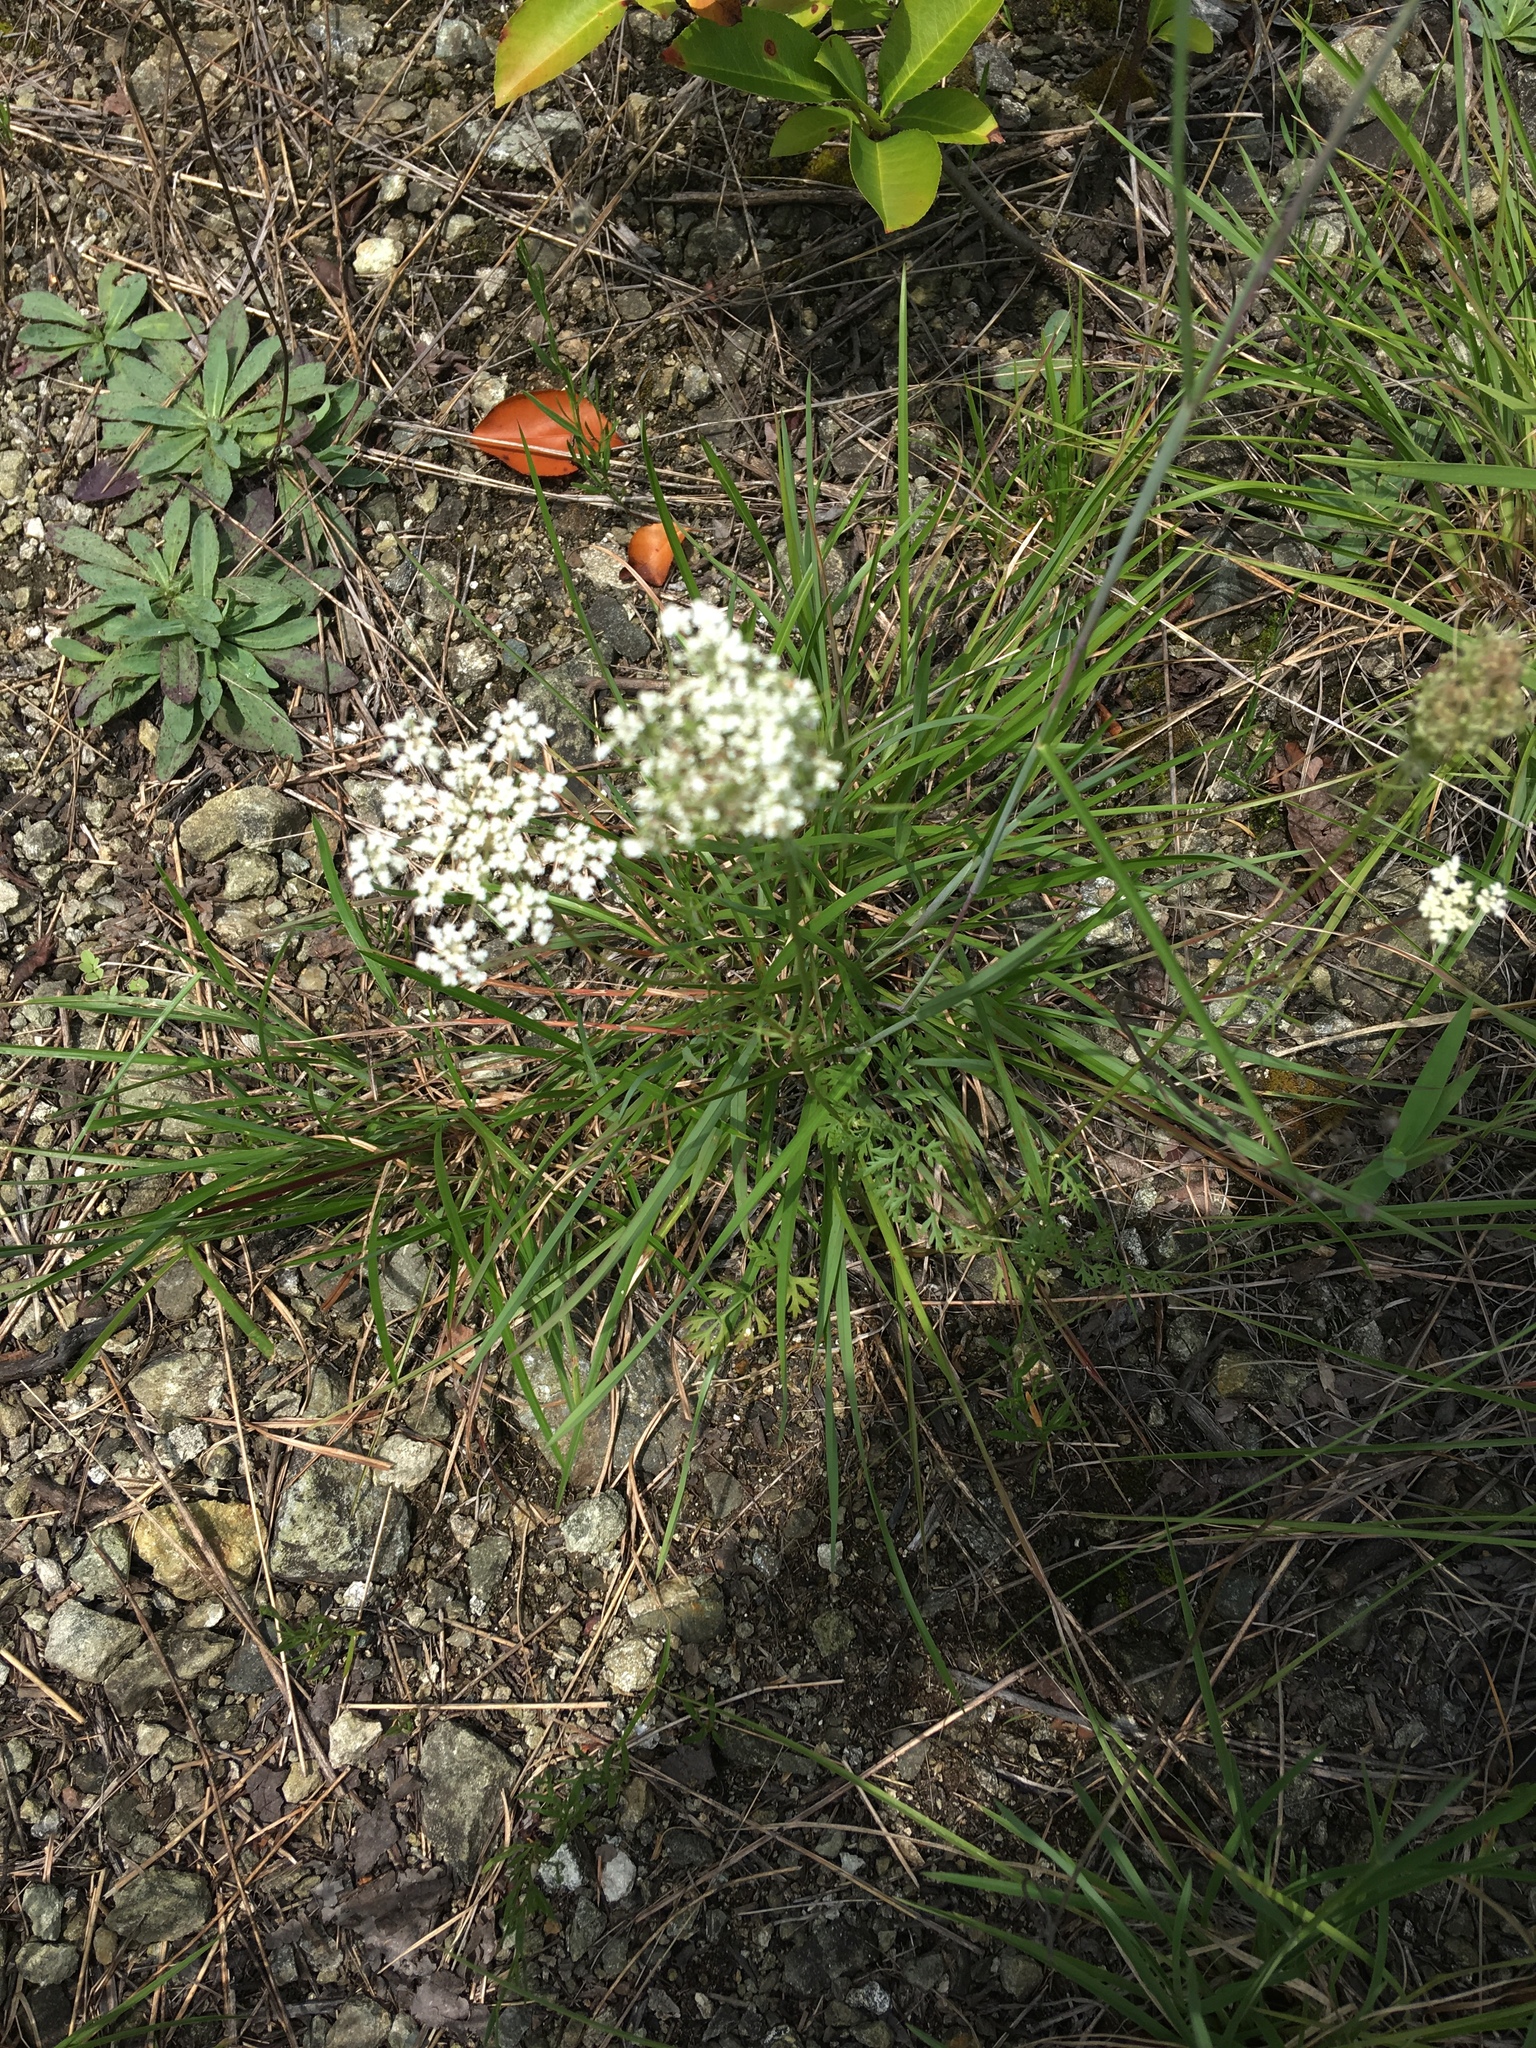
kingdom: Plantae
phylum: Tracheophyta
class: Magnoliopsida
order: Apiales
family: Apiaceae
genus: Daucus
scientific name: Daucus carota
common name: Wild carrot
